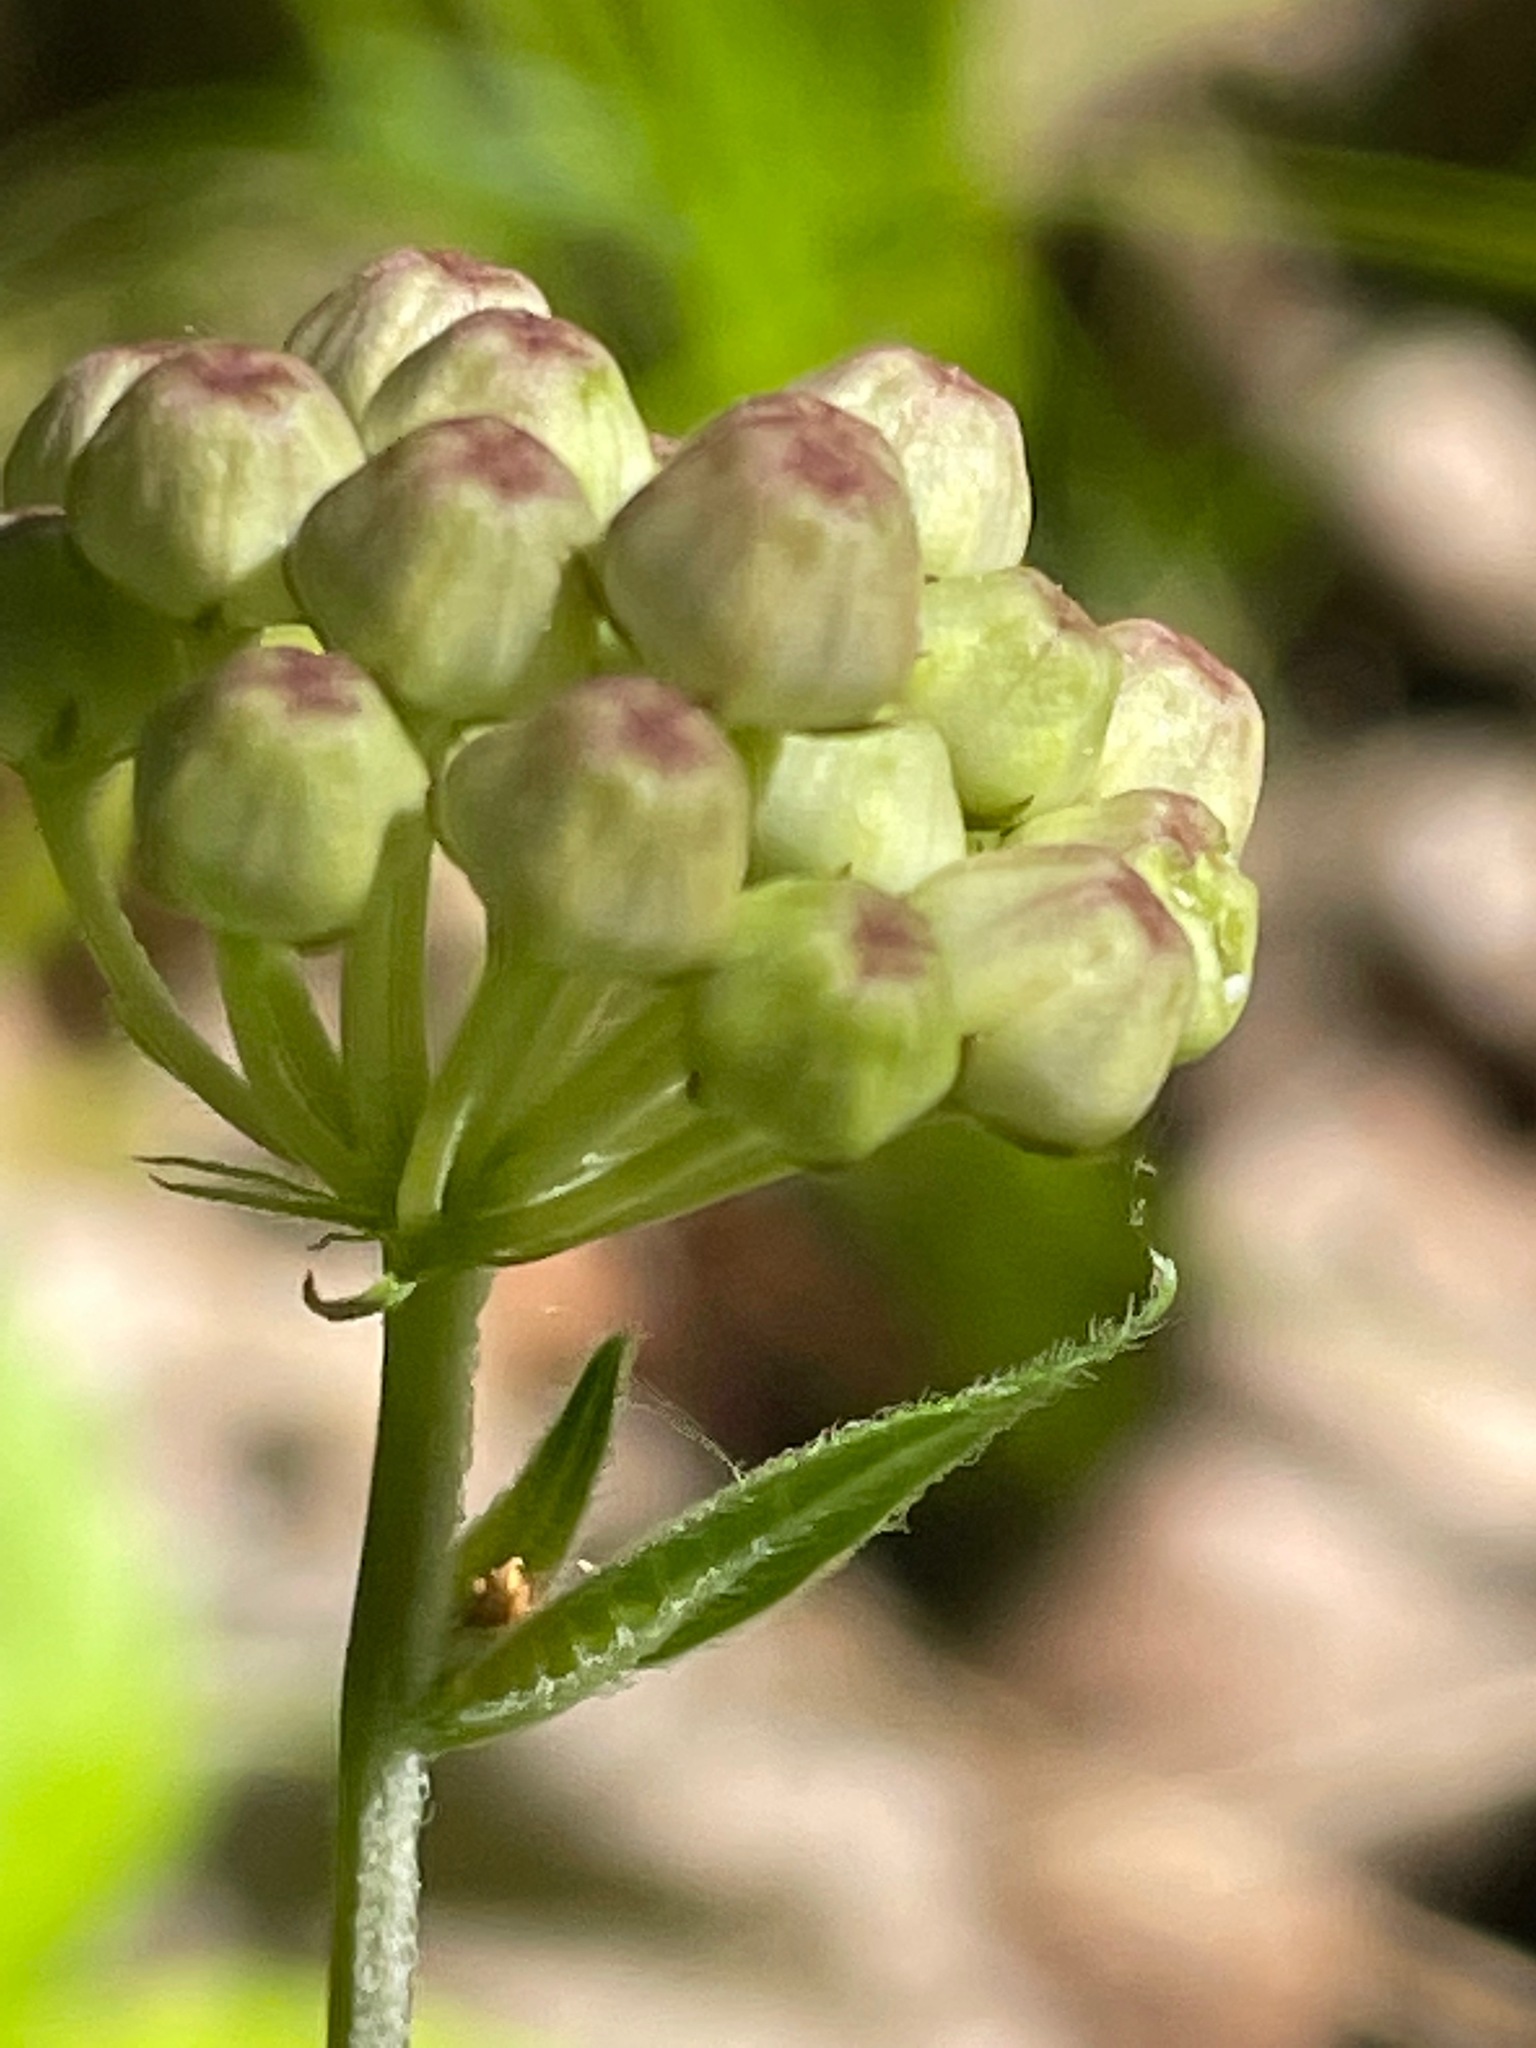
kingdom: Plantae
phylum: Tracheophyta
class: Magnoliopsida
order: Gentianales
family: Apocynaceae
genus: Asclepias
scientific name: Asclepias quadrifolia
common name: Whorled milkweed
